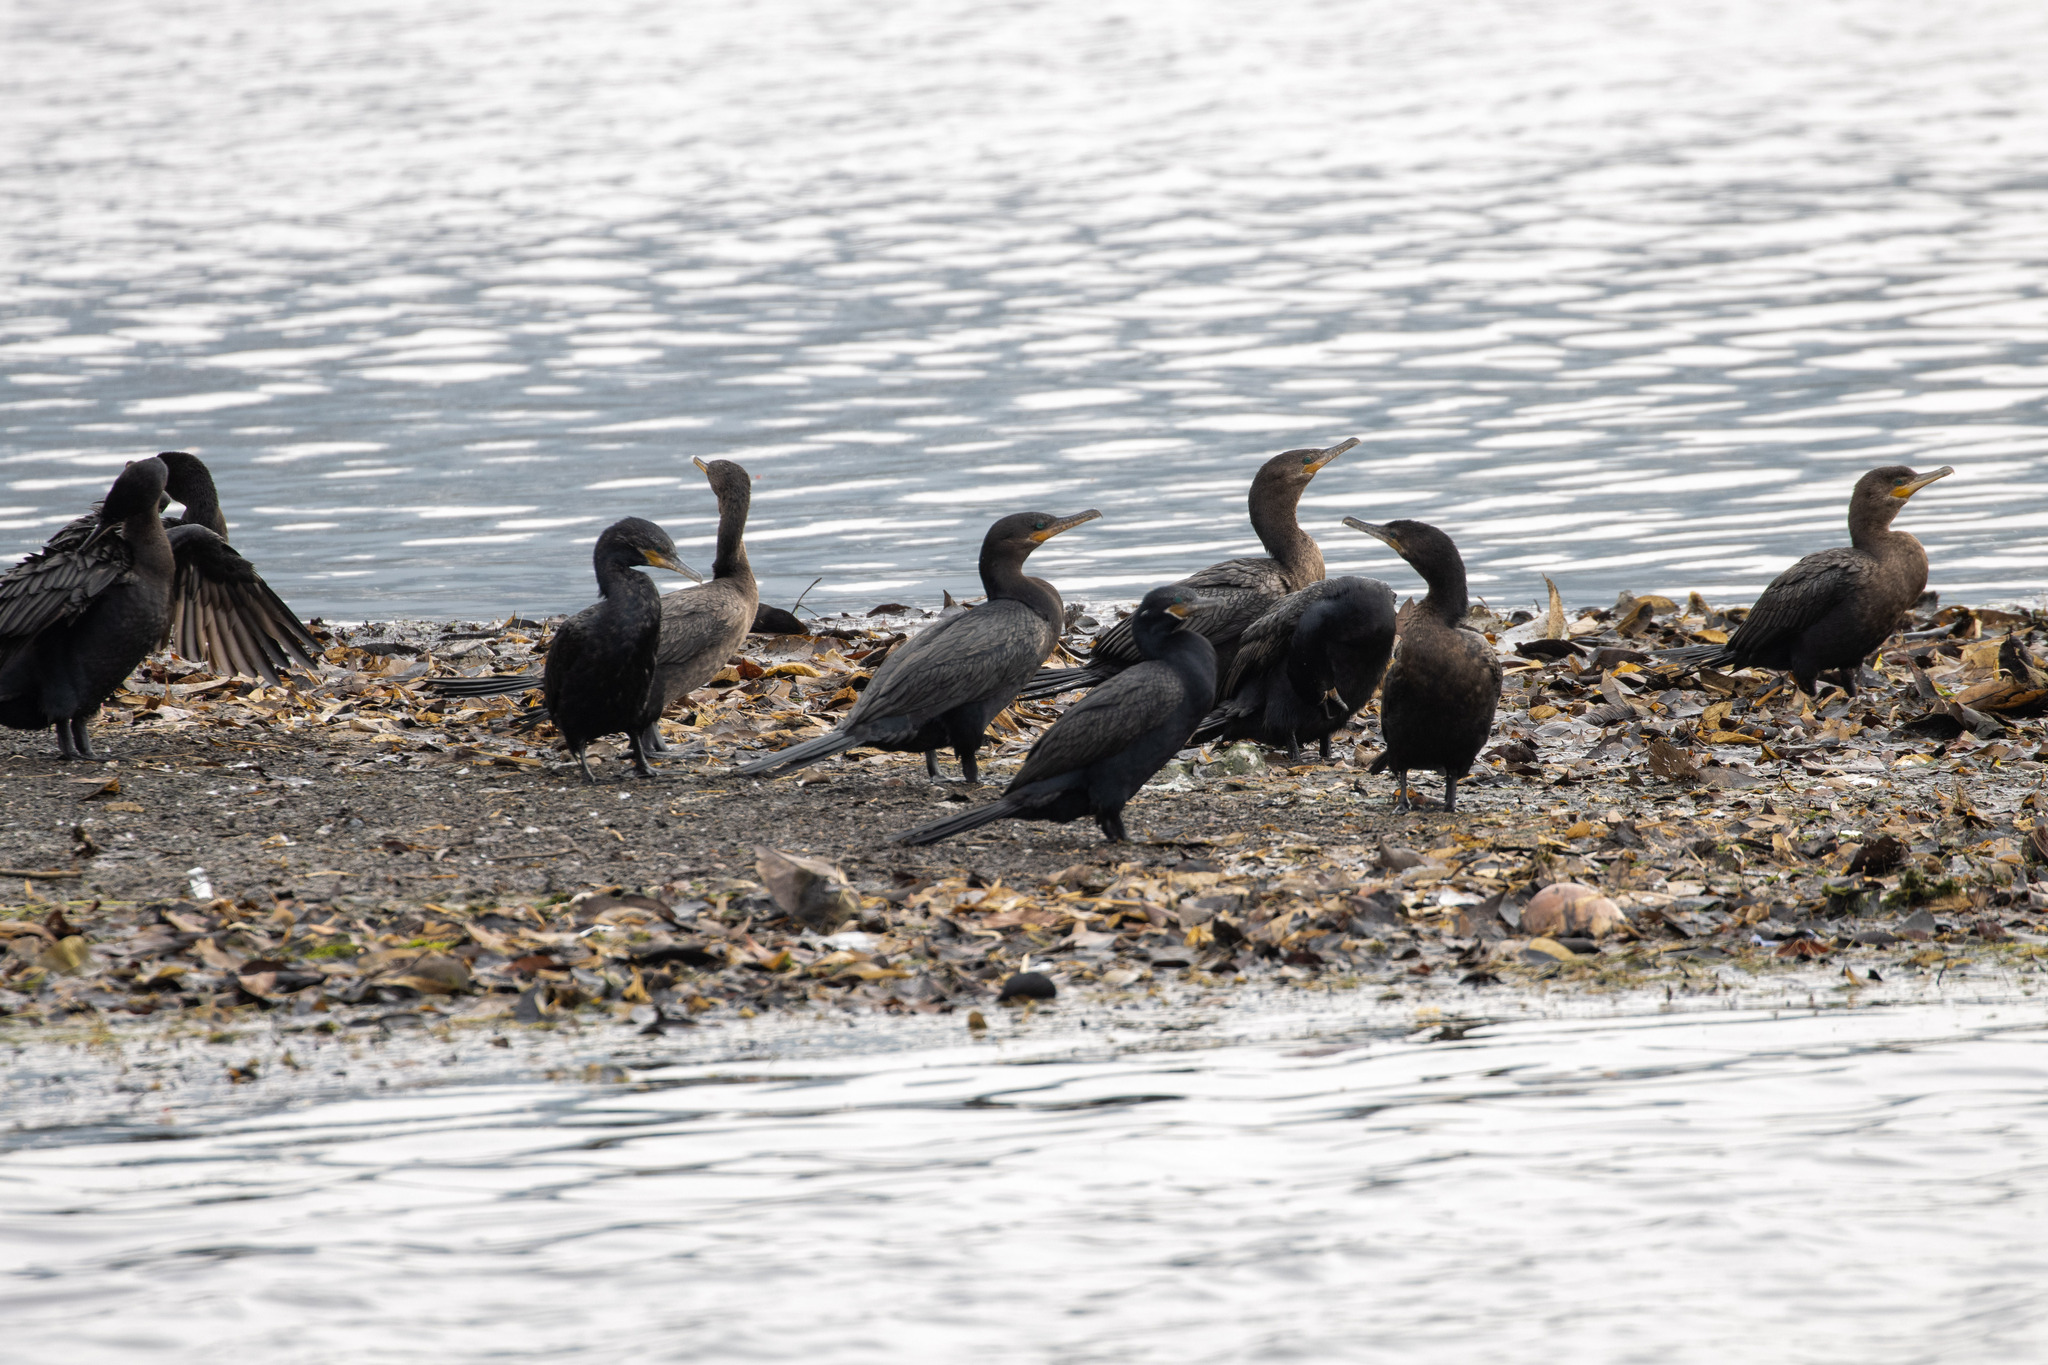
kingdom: Animalia
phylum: Chordata
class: Aves
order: Suliformes
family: Phalacrocoracidae
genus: Phalacrocorax
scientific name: Phalacrocorax brasilianus
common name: Neotropic cormorant
